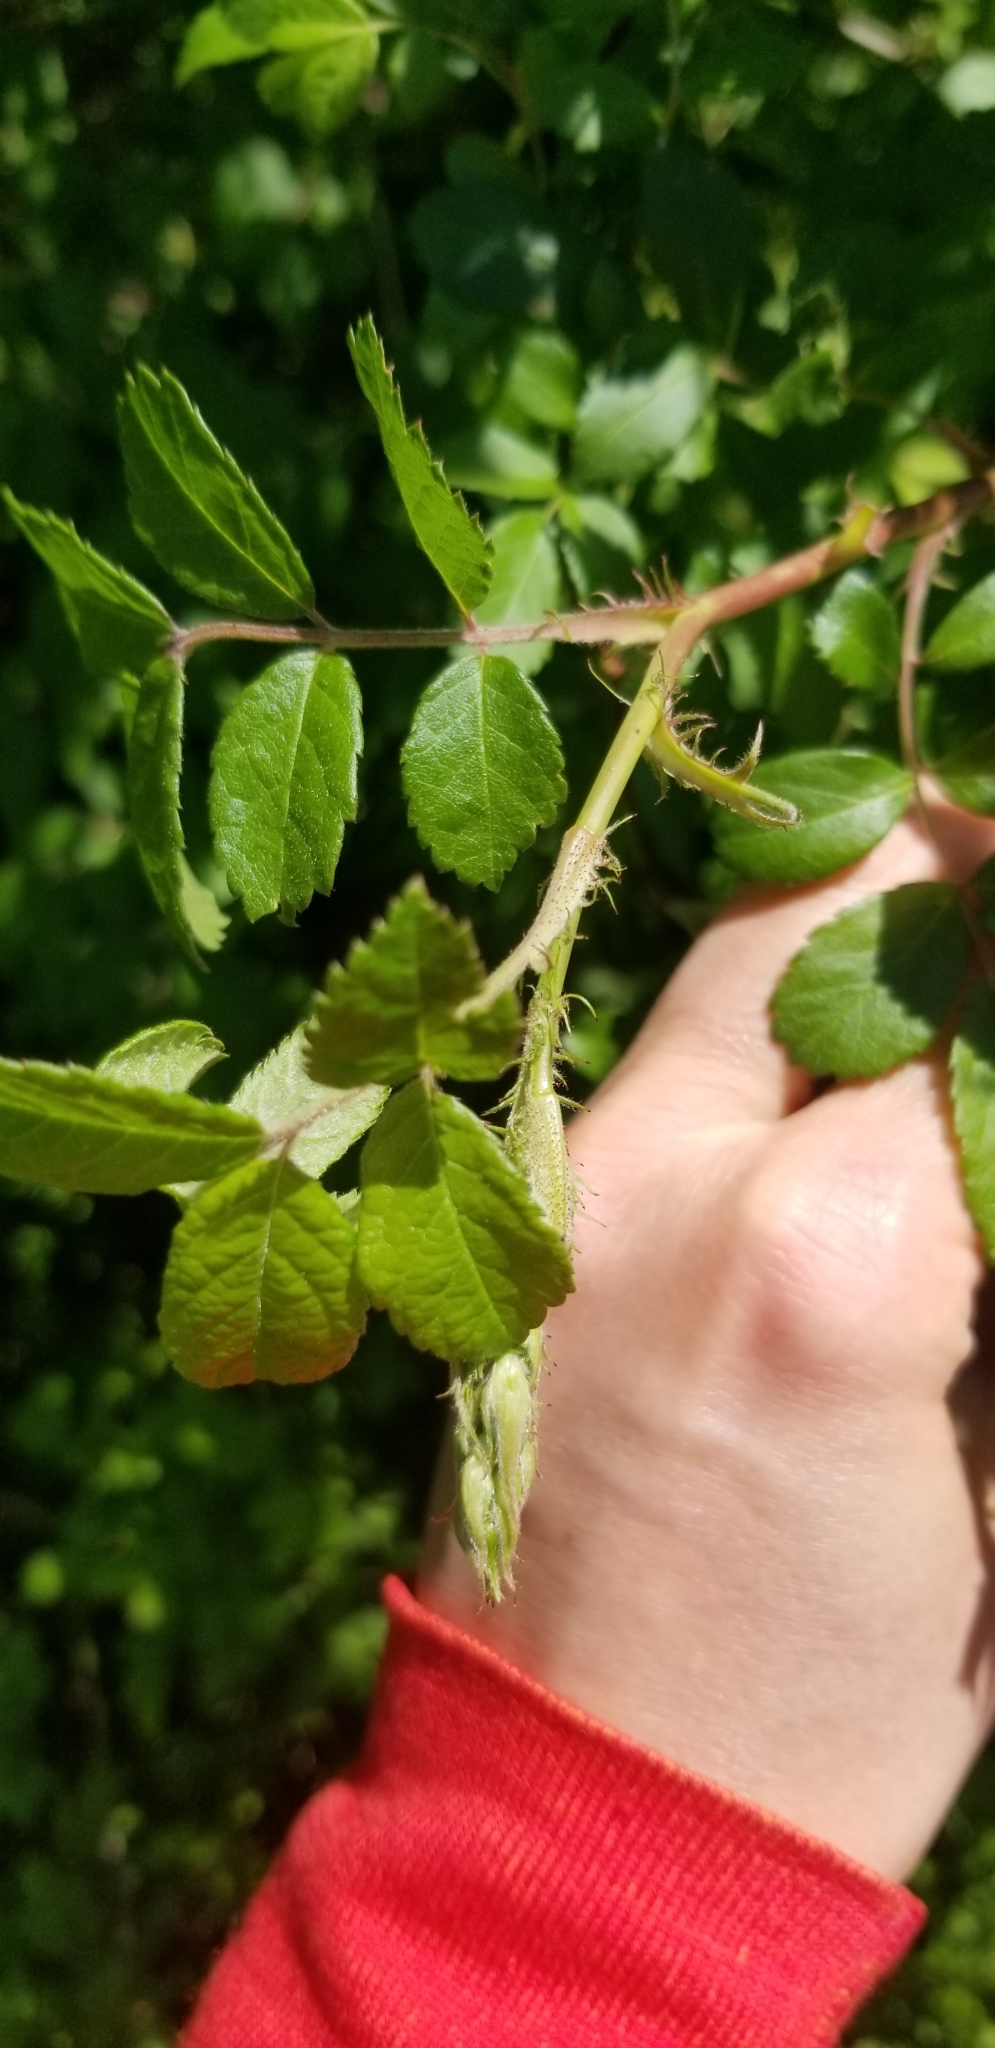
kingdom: Plantae
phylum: Tracheophyta
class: Magnoliopsida
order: Rosales
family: Rosaceae
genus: Rosa
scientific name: Rosa multiflora
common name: Multiflora rose
